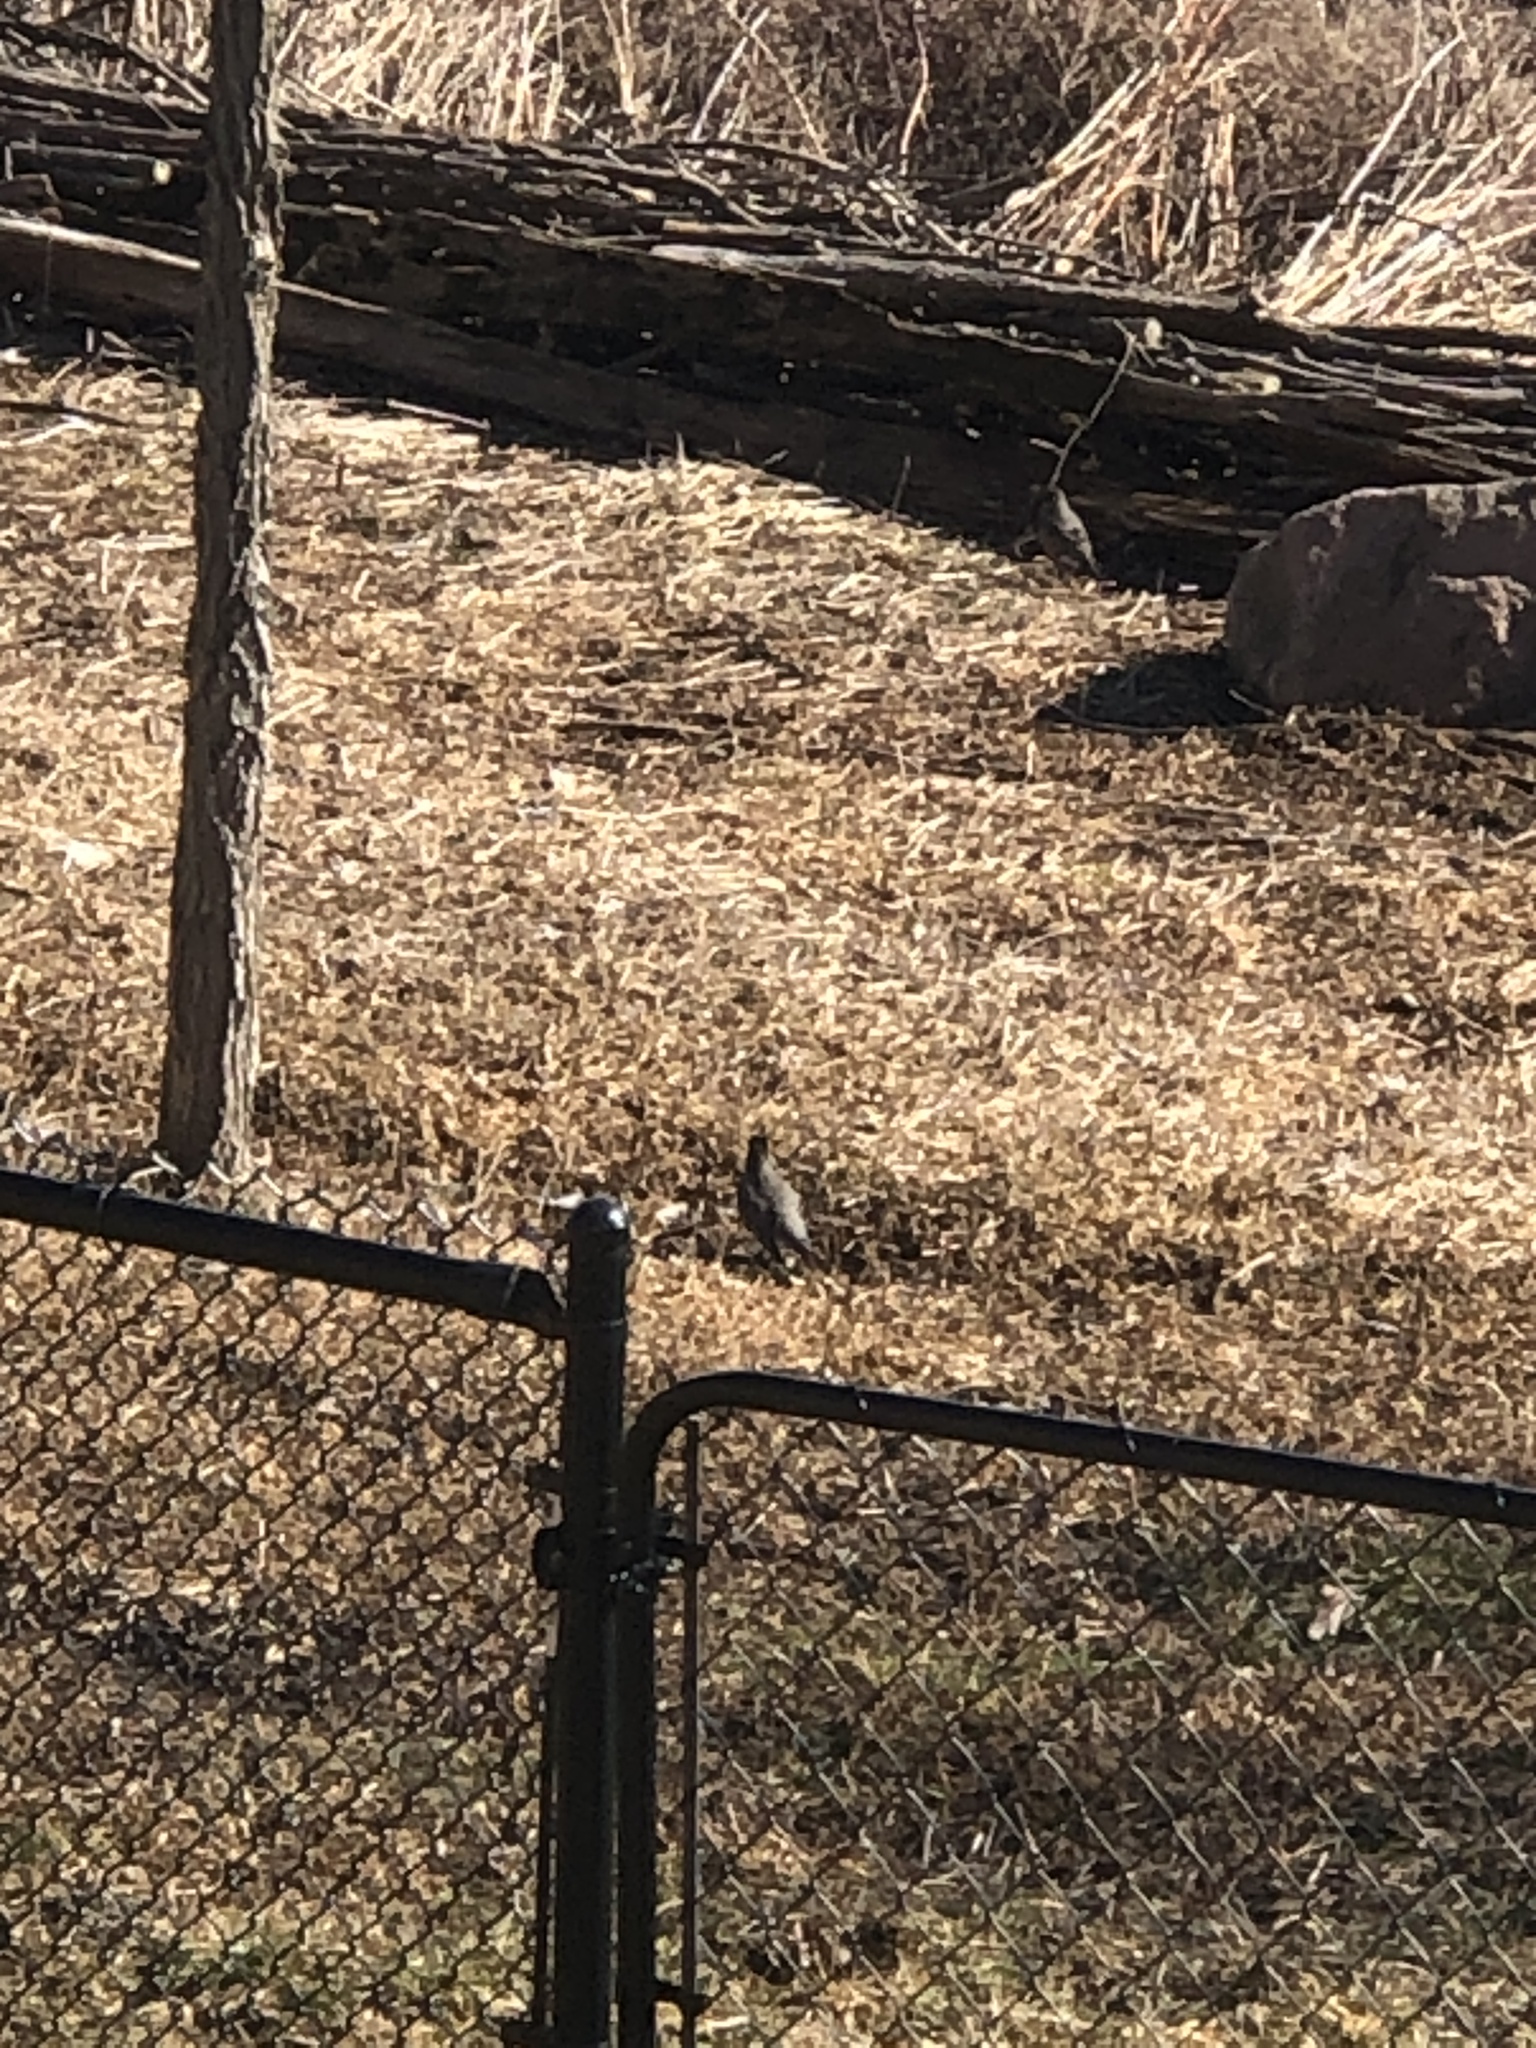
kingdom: Animalia
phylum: Chordata
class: Aves
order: Passeriformes
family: Turdidae
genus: Turdus
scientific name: Turdus migratorius
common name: American robin
